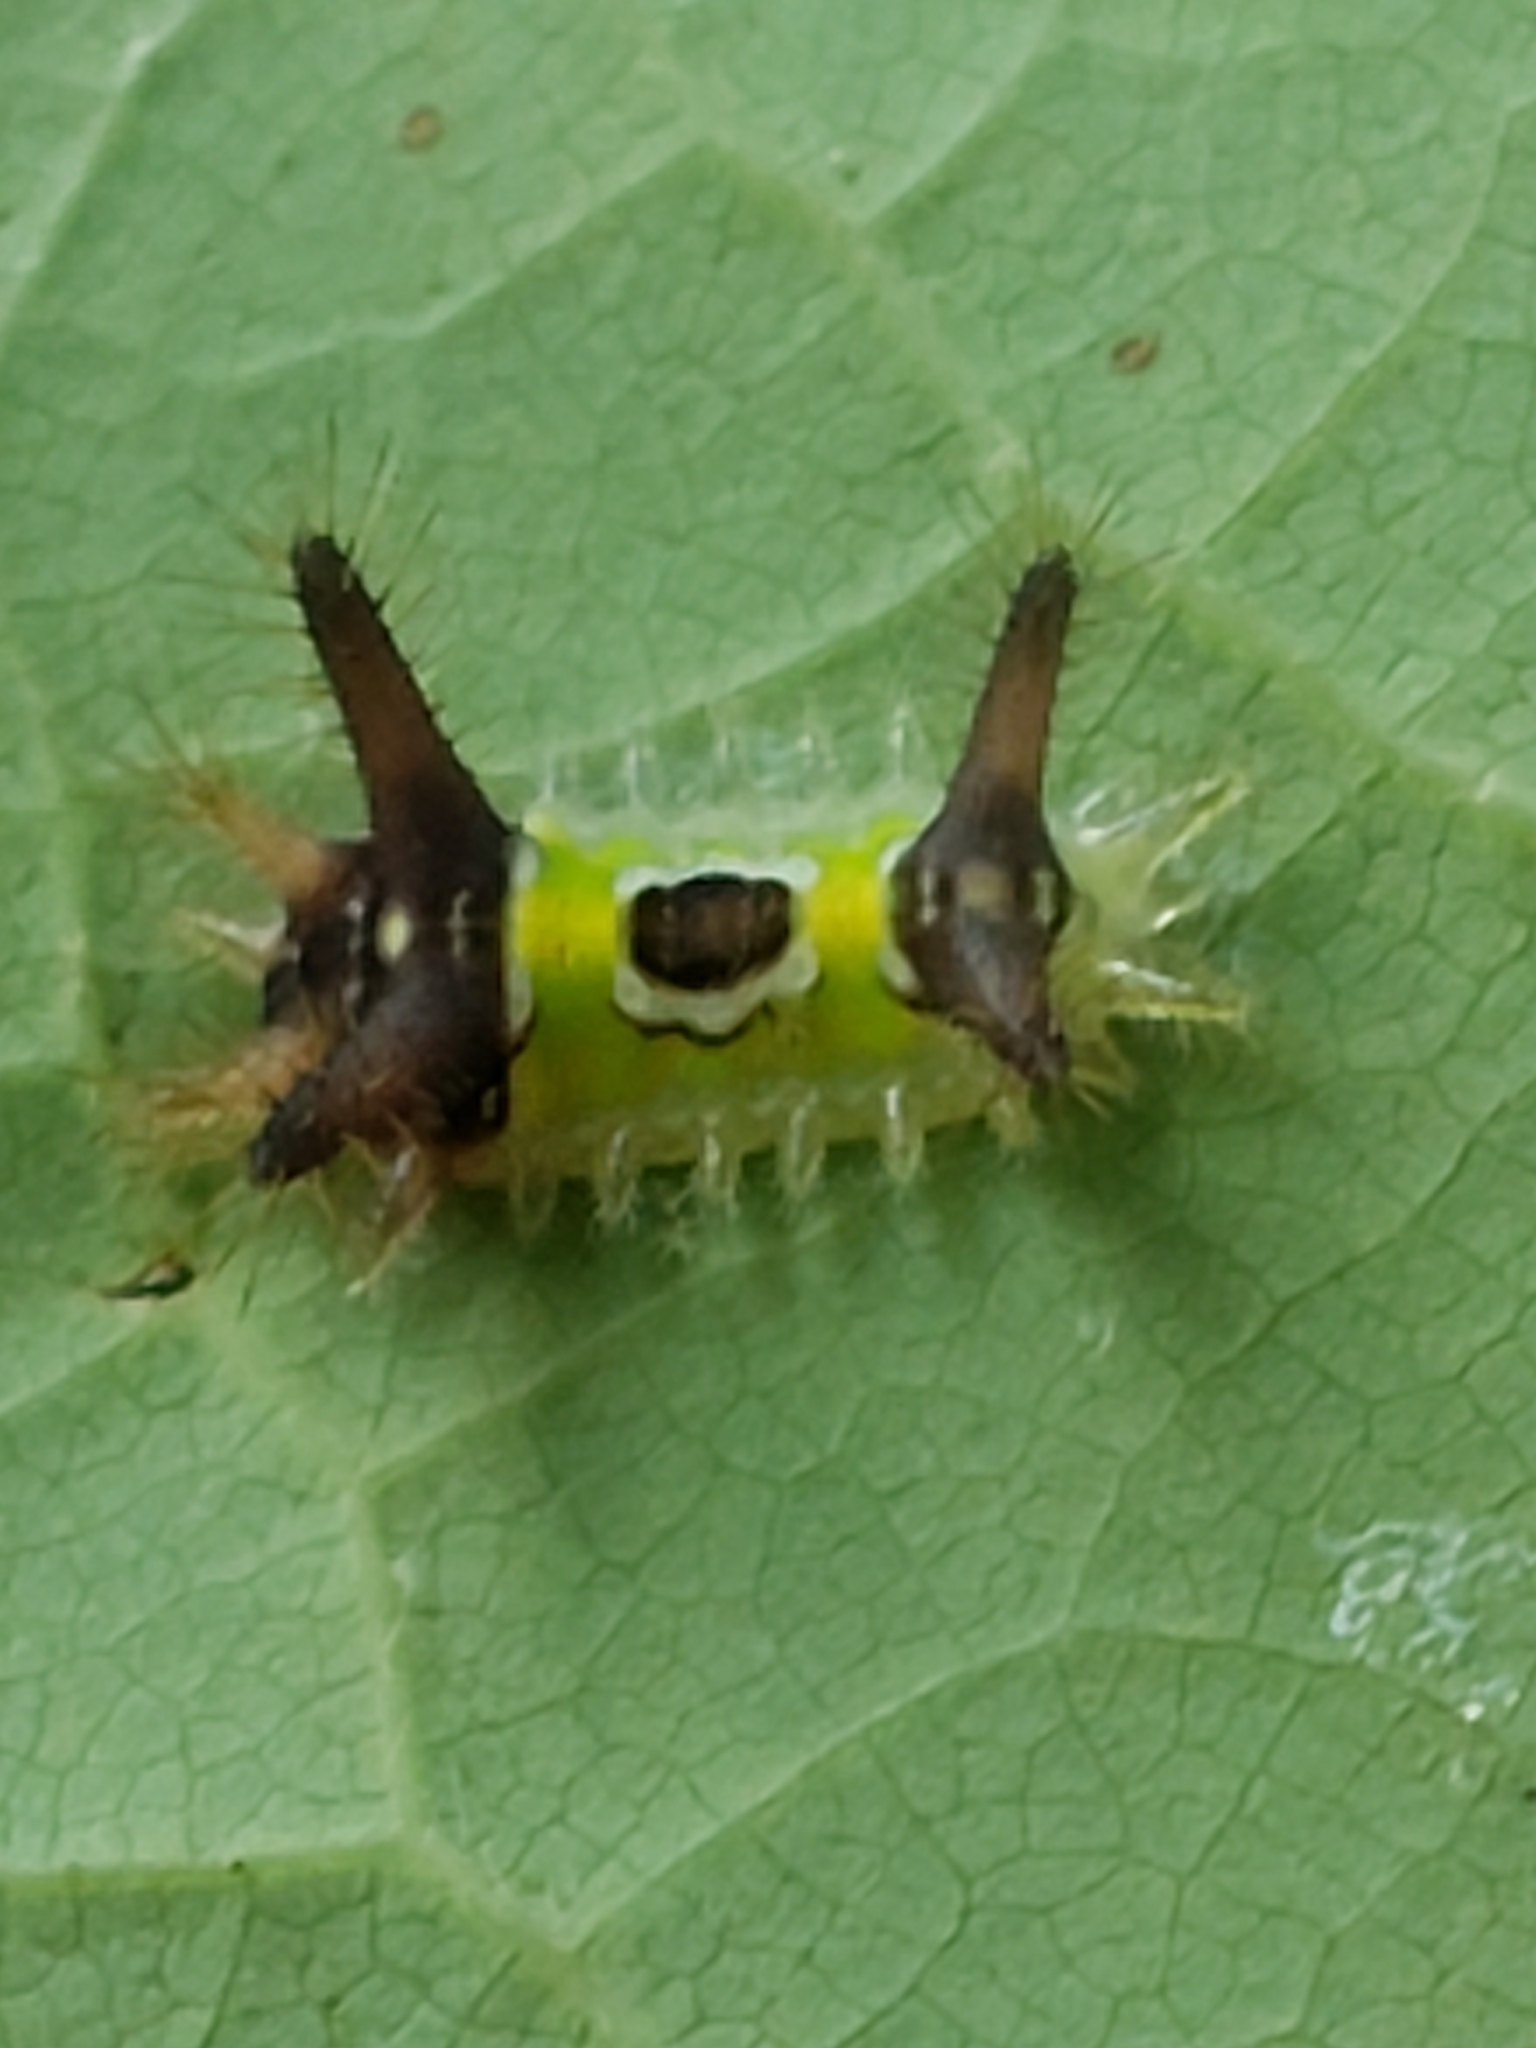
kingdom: Animalia
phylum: Arthropoda
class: Insecta
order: Lepidoptera
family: Limacodidae
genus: Acharia
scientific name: Acharia stimulea
